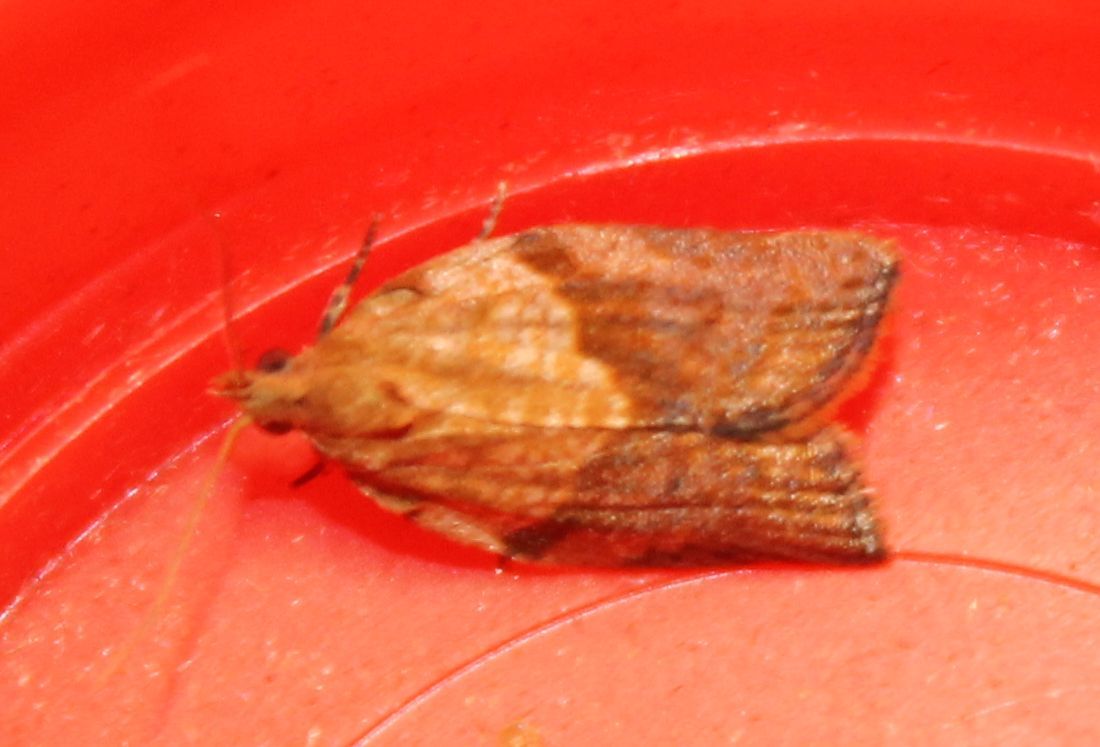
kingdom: Animalia
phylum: Arthropoda
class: Insecta
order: Lepidoptera
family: Tortricidae
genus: Epiphyas
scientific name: Epiphyas postvittana
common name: Light brown apple moth
